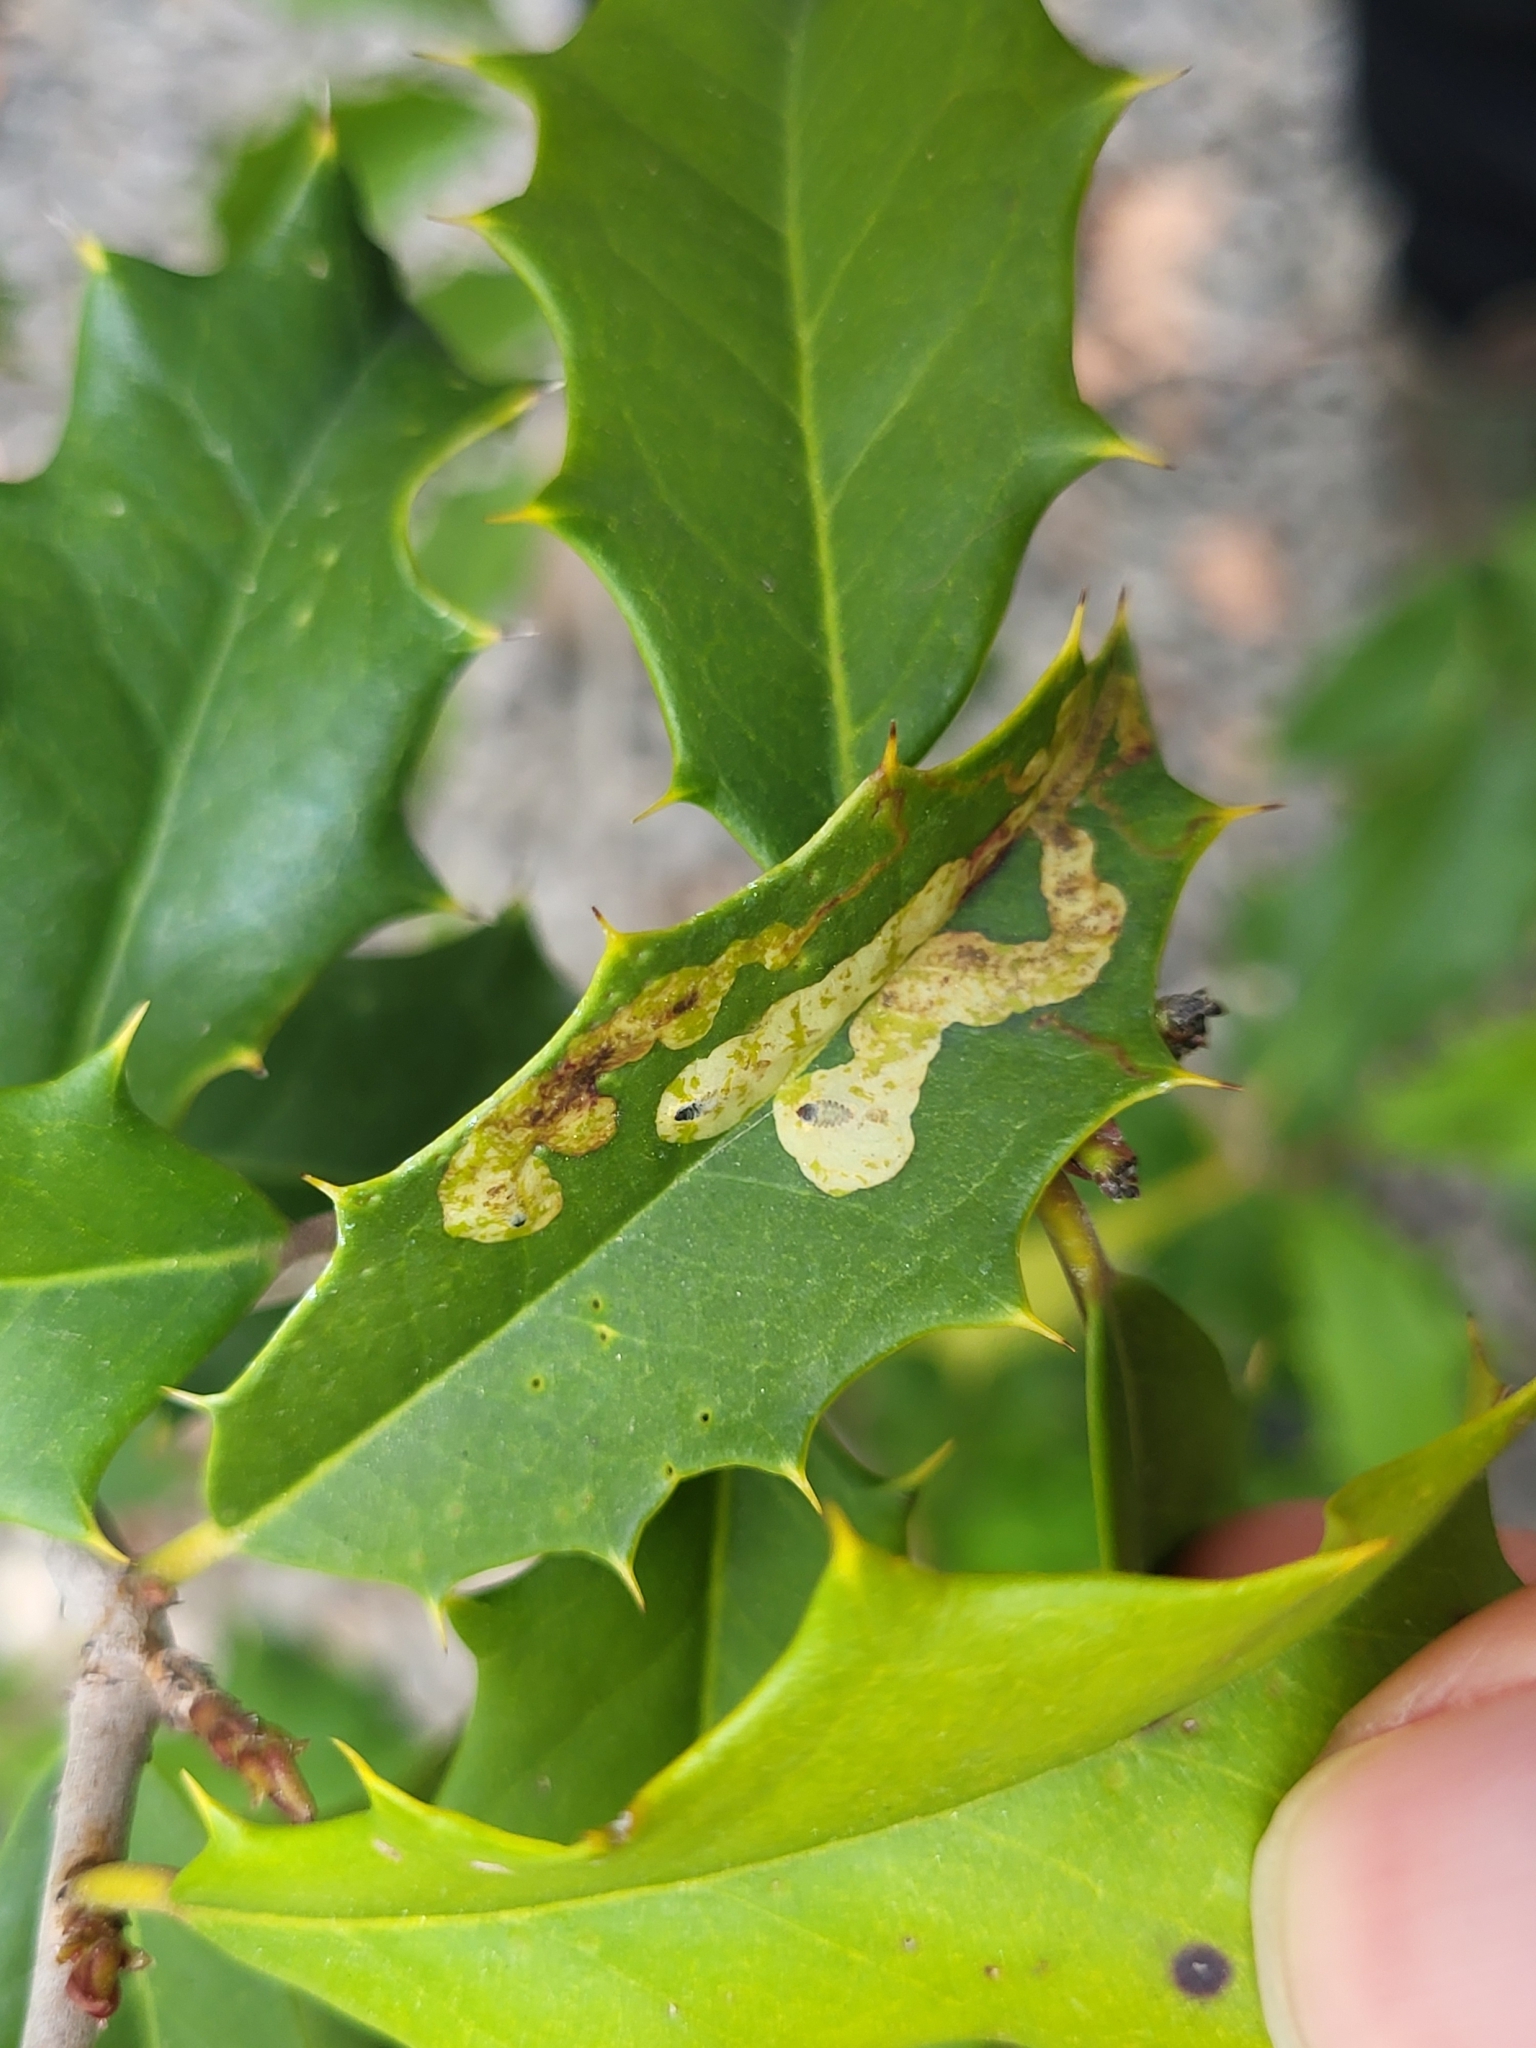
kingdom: Animalia
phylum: Arthropoda
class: Insecta
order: Diptera
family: Agromyzidae
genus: Phytomyza
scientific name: Phytomyza ilicicola
